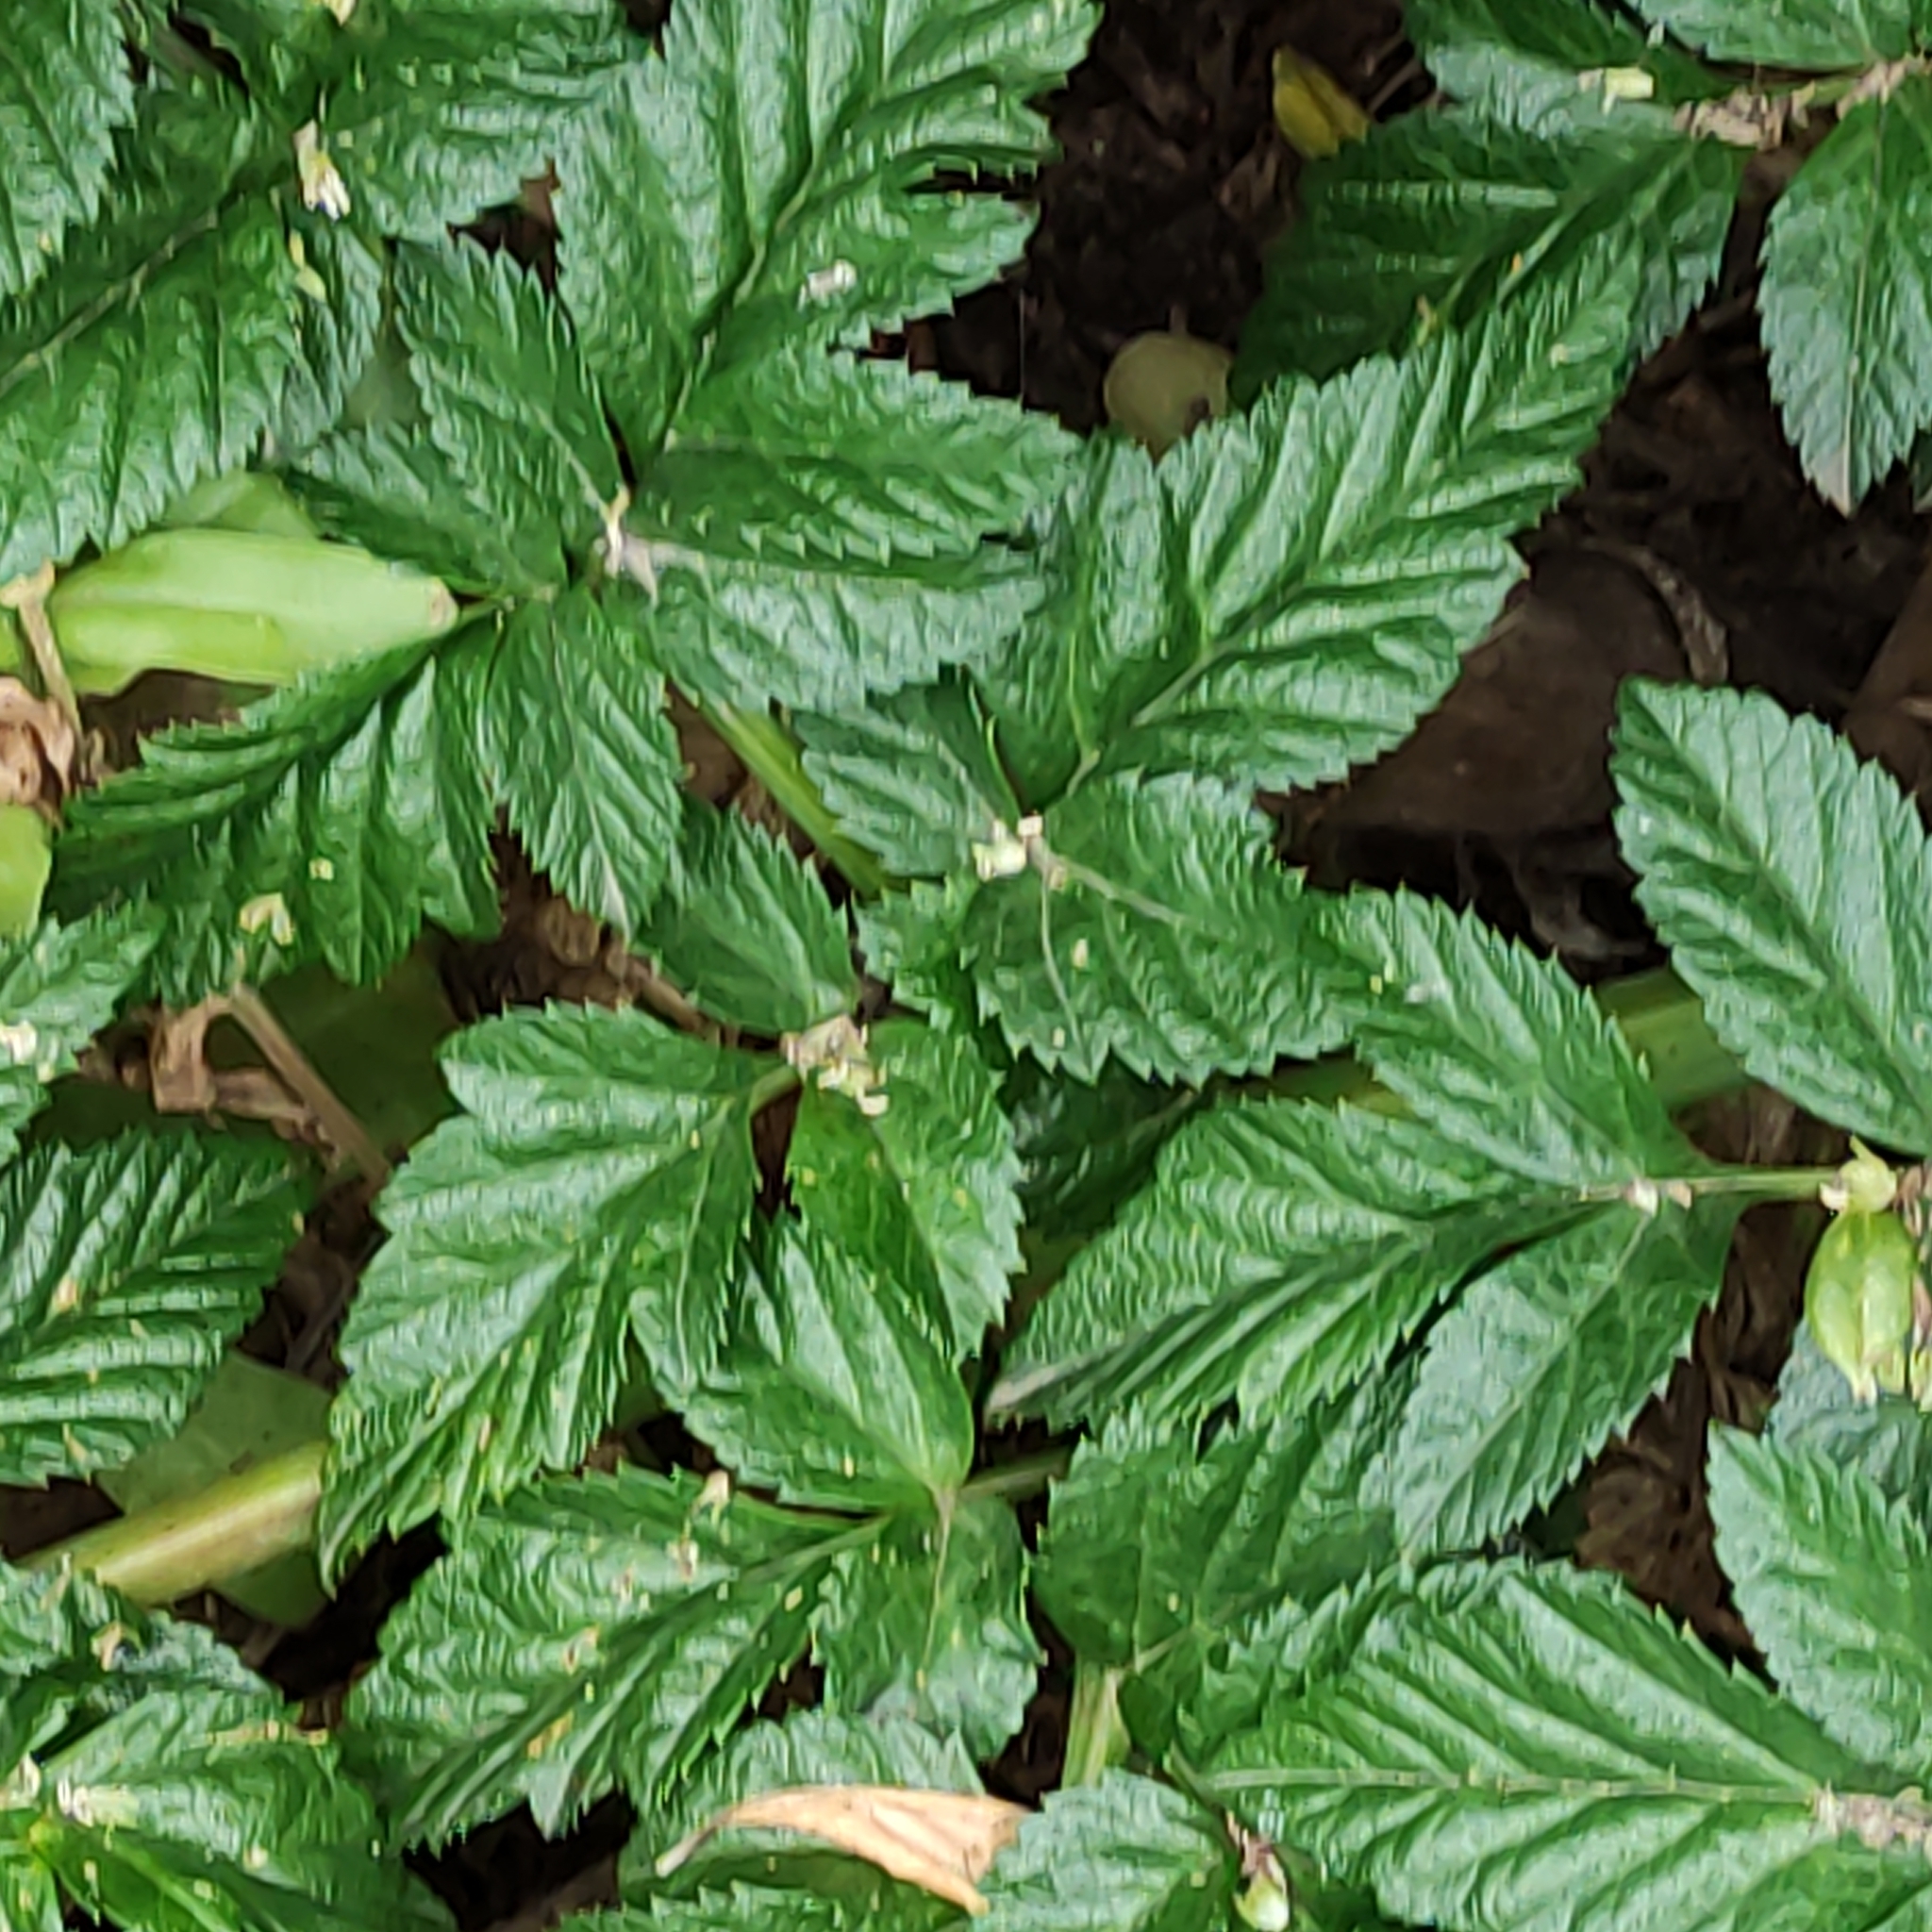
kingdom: Plantae
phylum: Tracheophyta
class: Magnoliopsida
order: Apiales
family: Apiaceae
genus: Angelica
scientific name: Angelica pachycarpa
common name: Portuguese angelica
